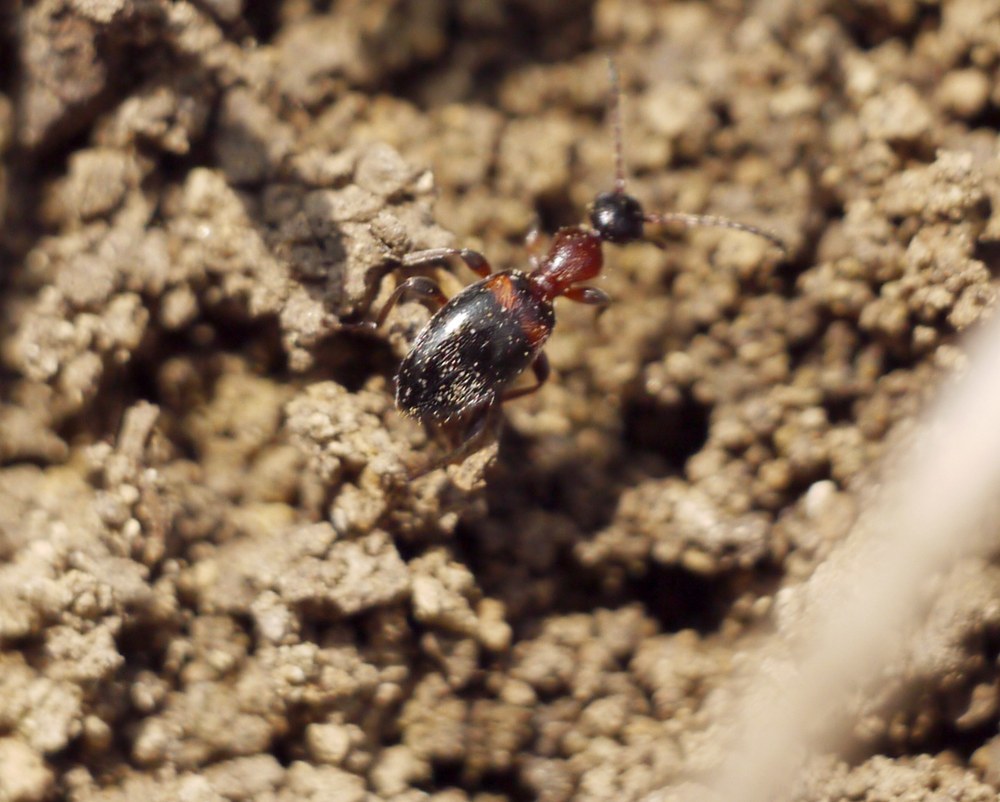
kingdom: Animalia
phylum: Arthropoda
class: Insecta
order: Coleoptera
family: Anthicidae
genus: Anthelephila
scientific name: Anthelephila pedestris
